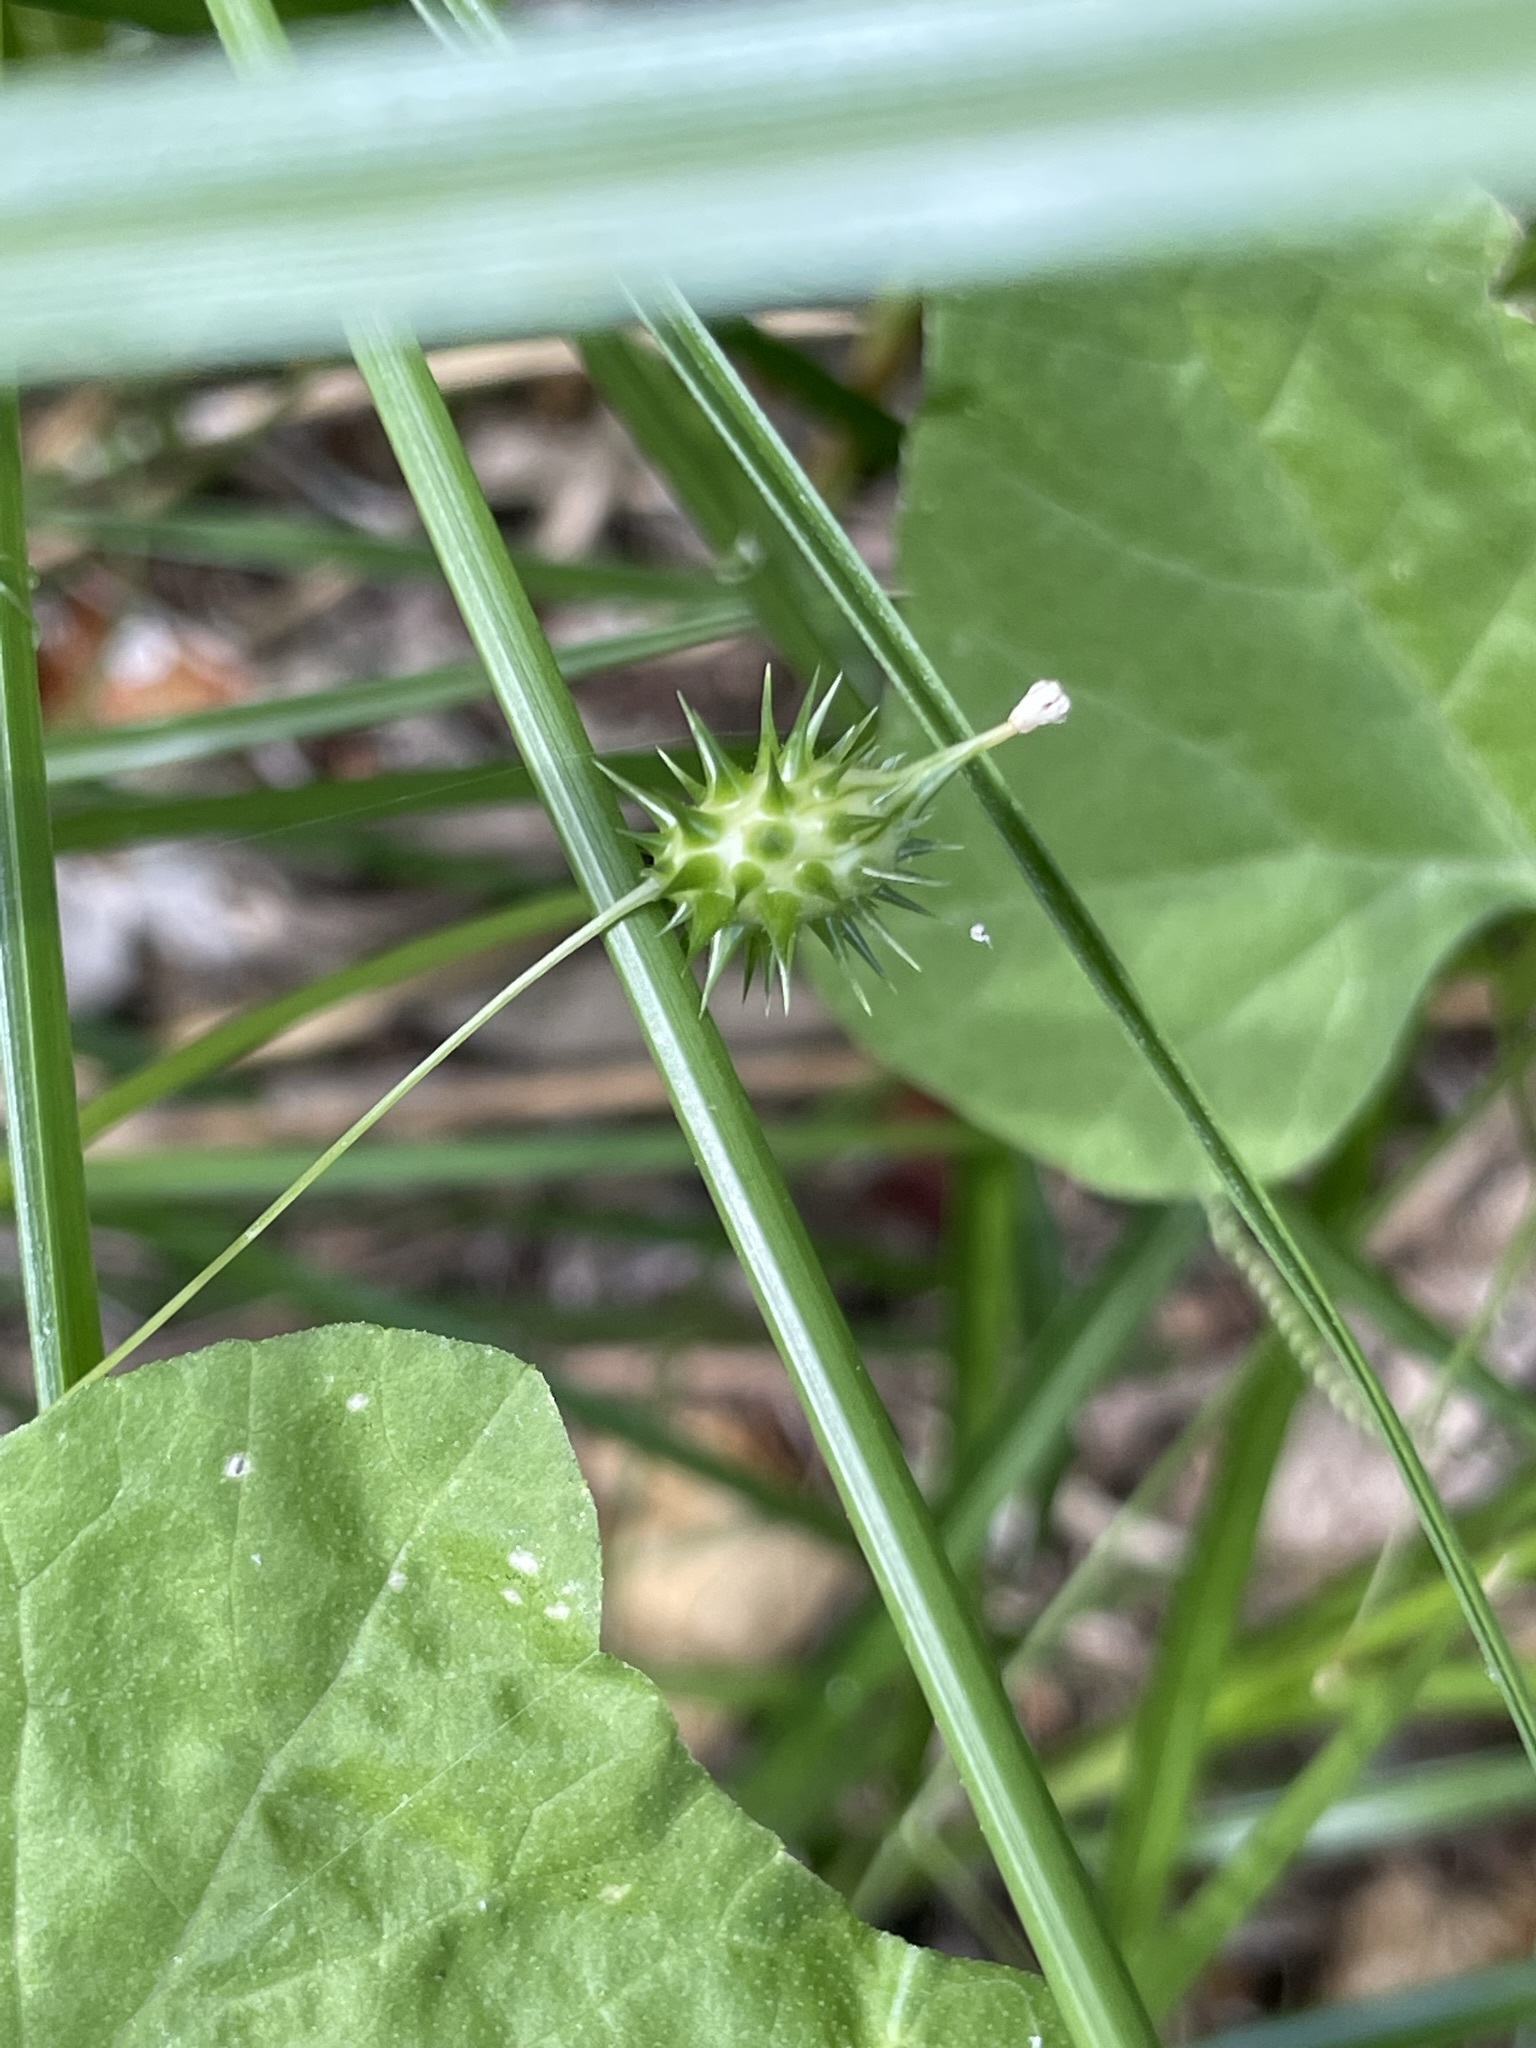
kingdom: Plantae
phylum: Tracheophyta
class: Magnoliopsida
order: Cucurbitales
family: Cucurbitaceae
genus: Echinopepon
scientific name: Echinopepon minimus
